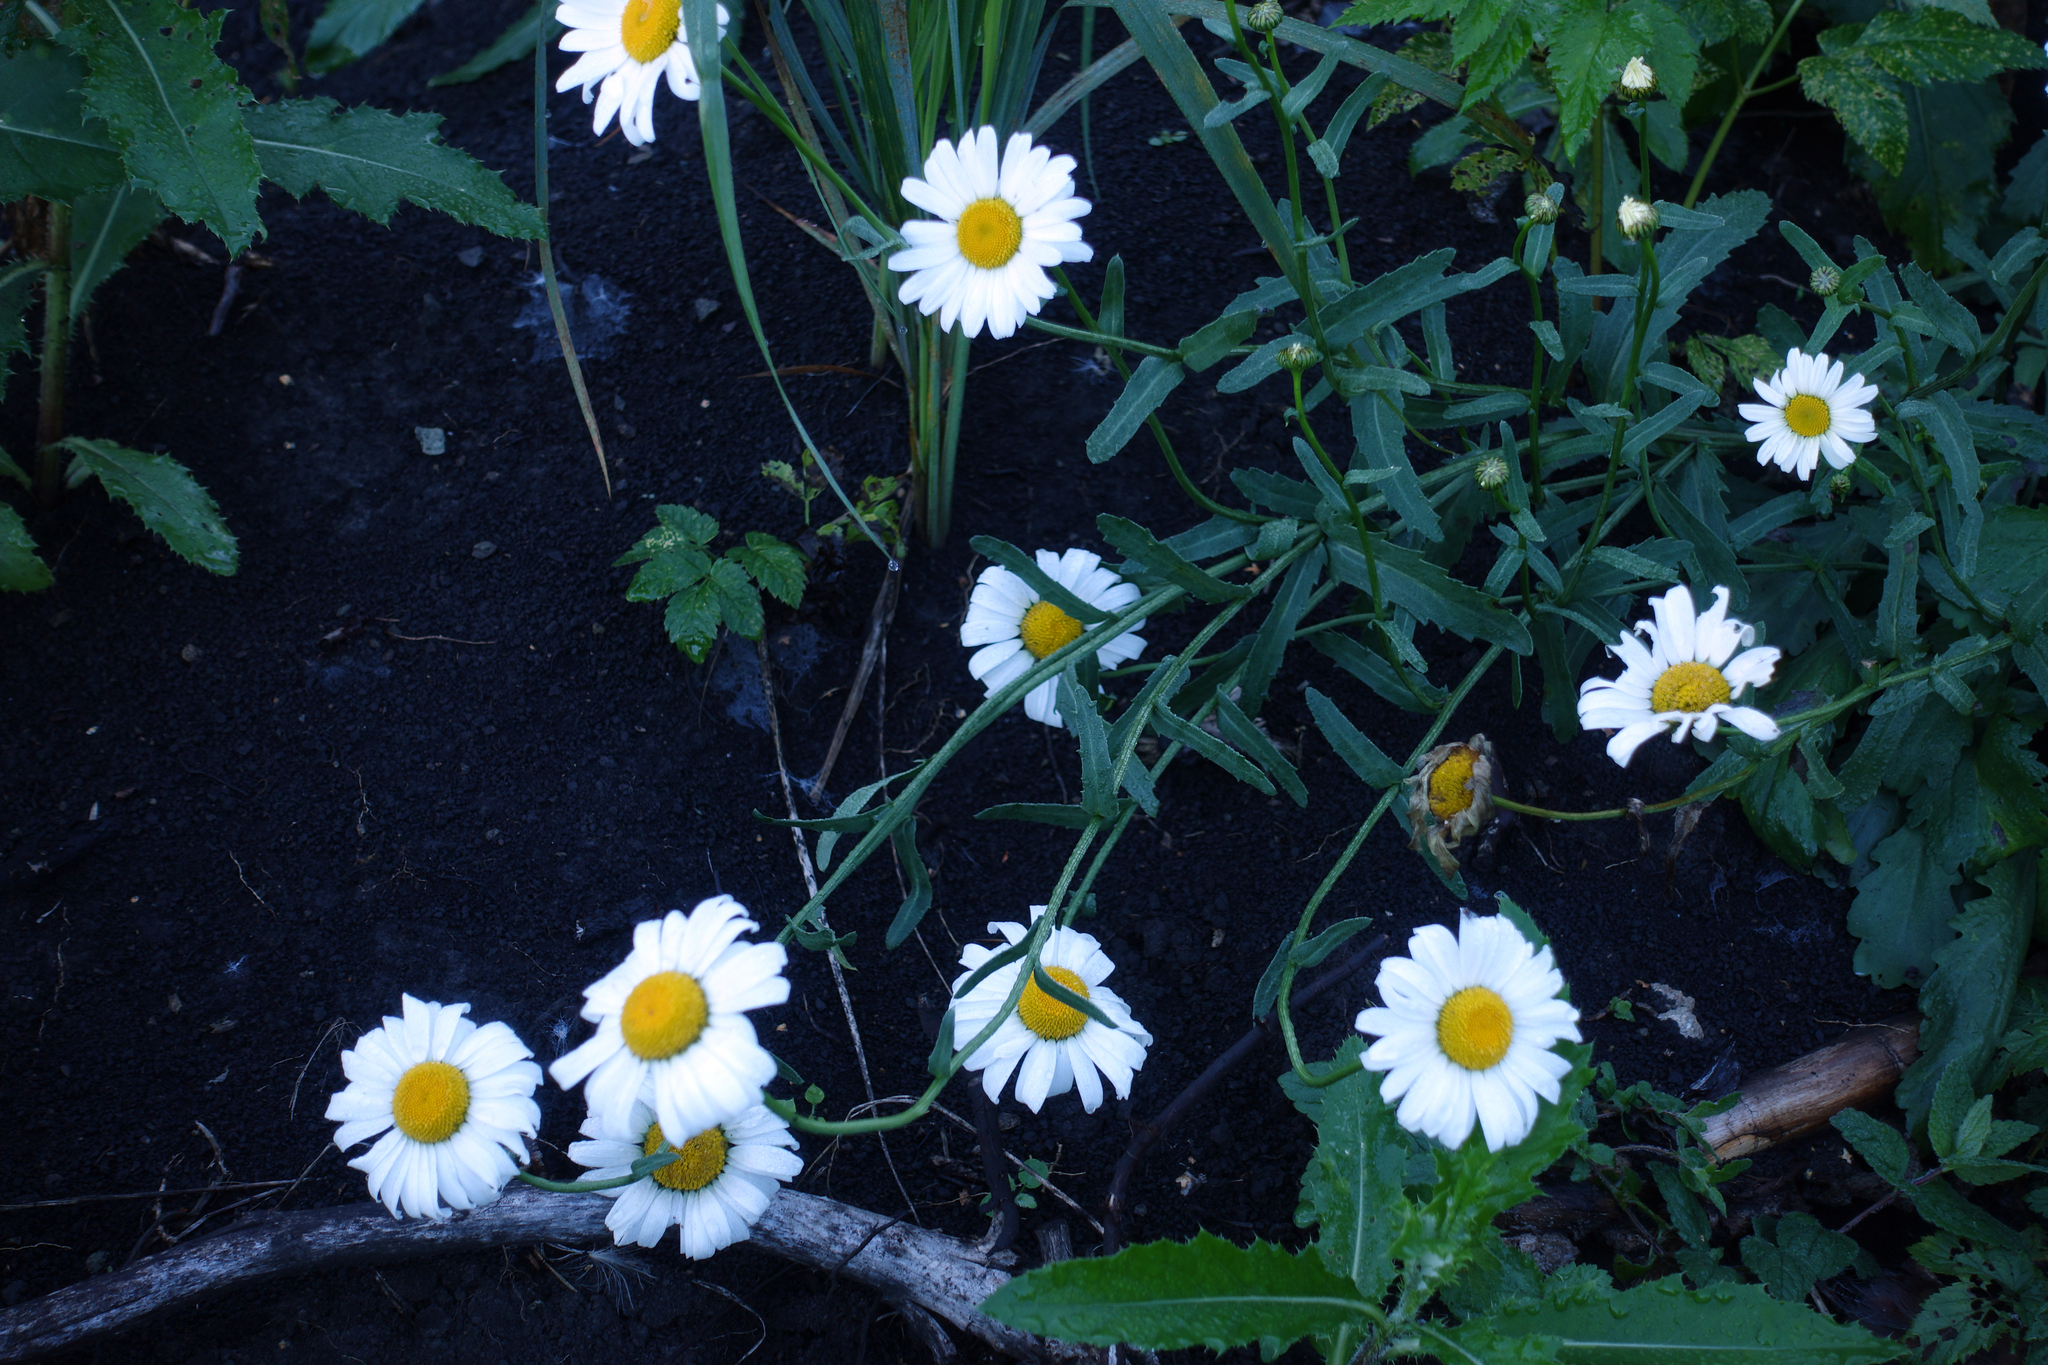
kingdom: Plantae
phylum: Tracheophyta
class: Magnoliopsida
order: Asterales
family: Asteraceae
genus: Leucanthemum
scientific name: Leucanthemum ircutianum
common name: Daisy
